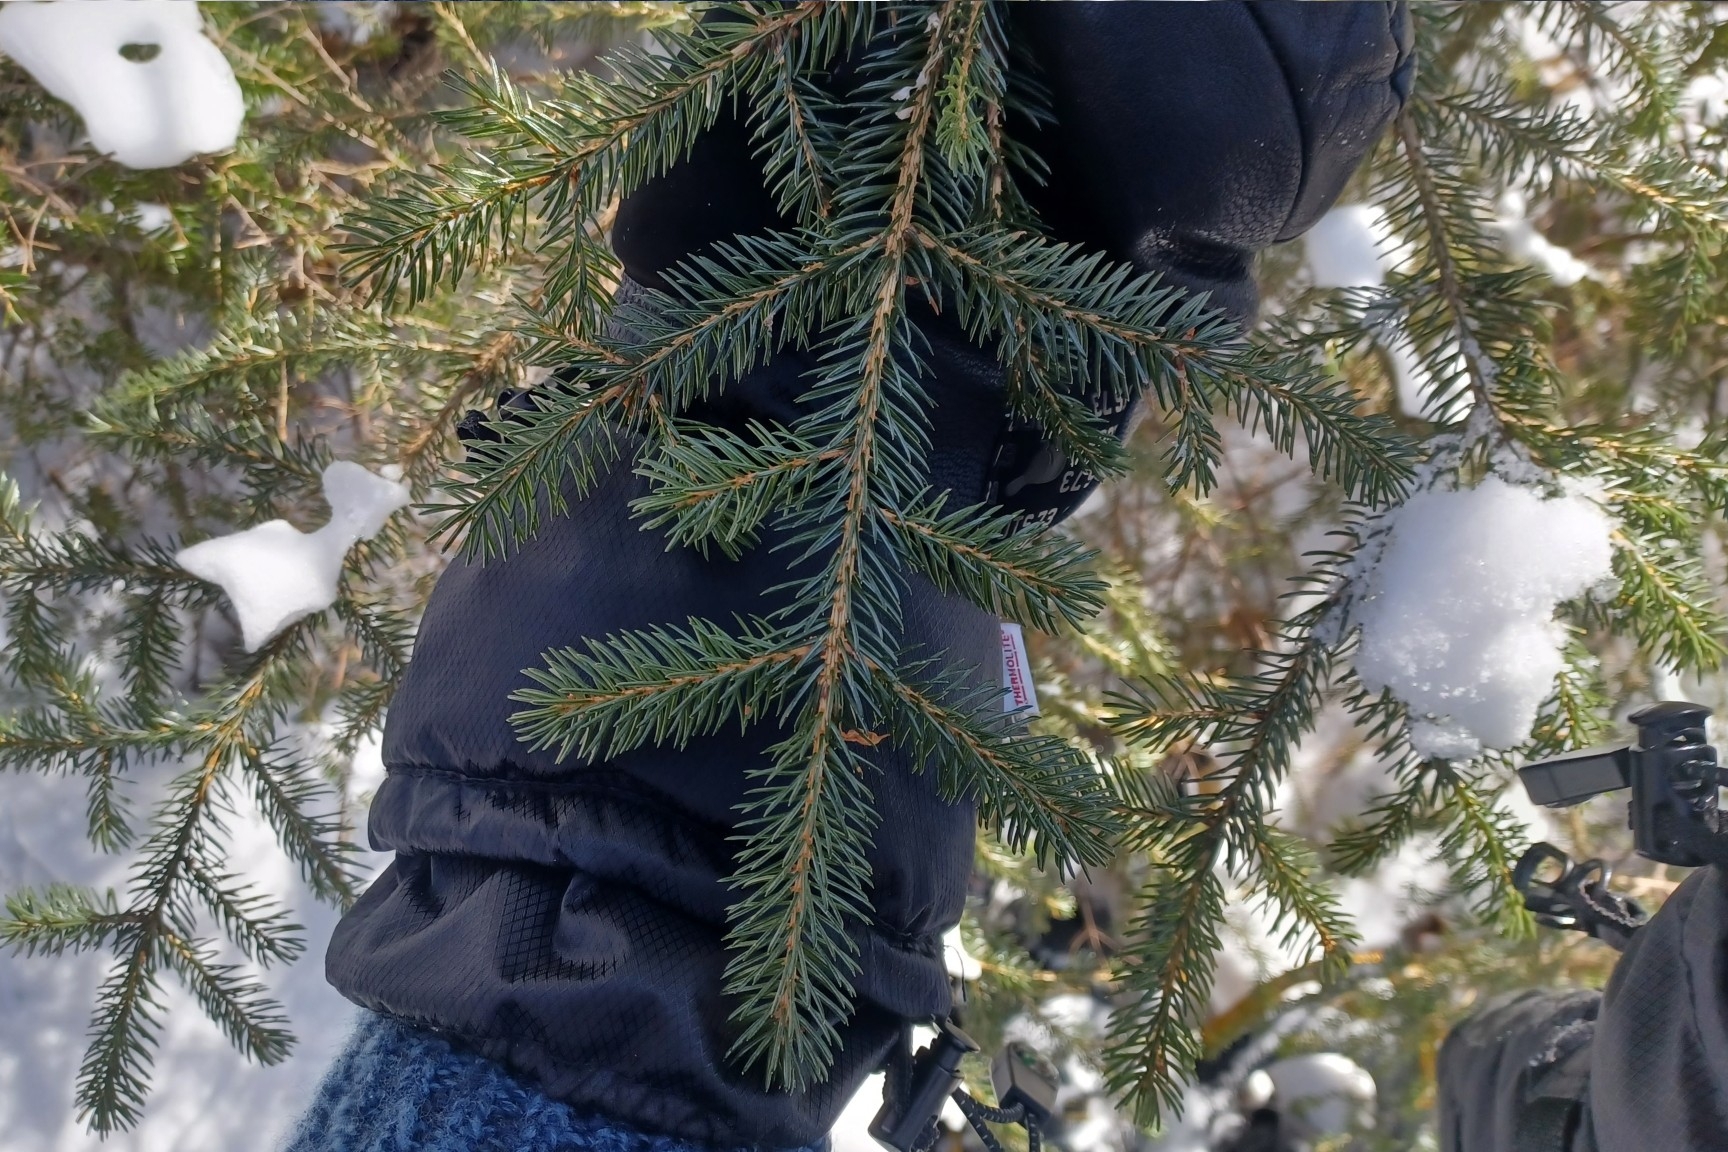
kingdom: Plantae
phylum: Tracheophyta
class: Pinopsida
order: Pinales
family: Pinaceae
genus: Picea
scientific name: Picea rubens
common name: Red spruce
